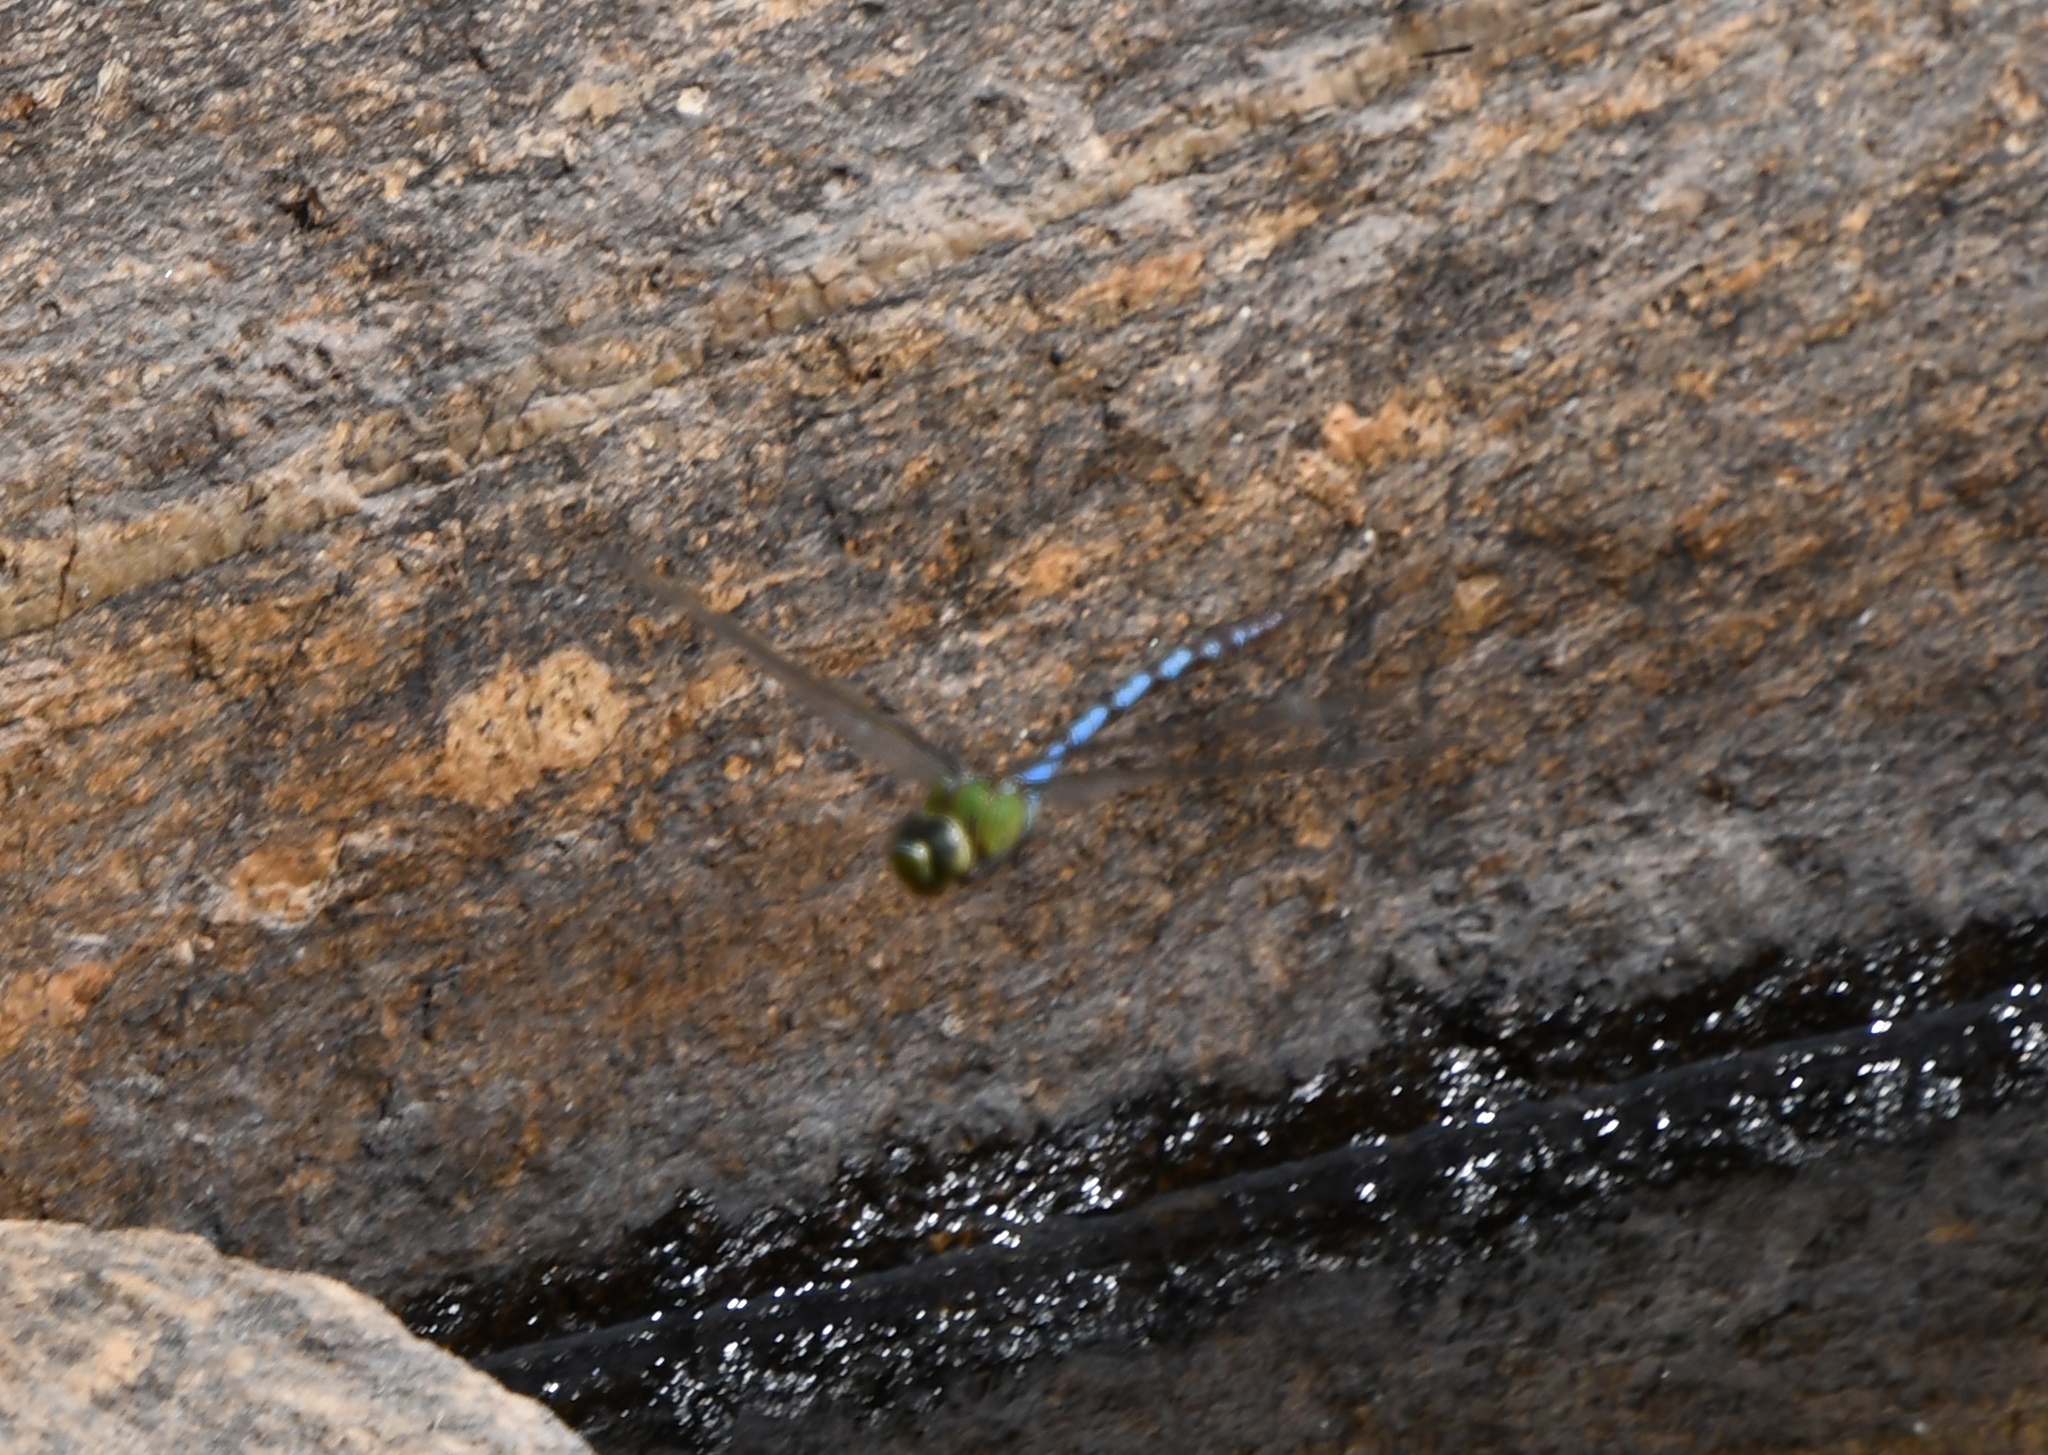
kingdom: Animalia
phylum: Arthropoda
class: Insecta
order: Odonata
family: Aeshnidae
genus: Anax
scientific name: Anax walsinghami
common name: Giant darner
